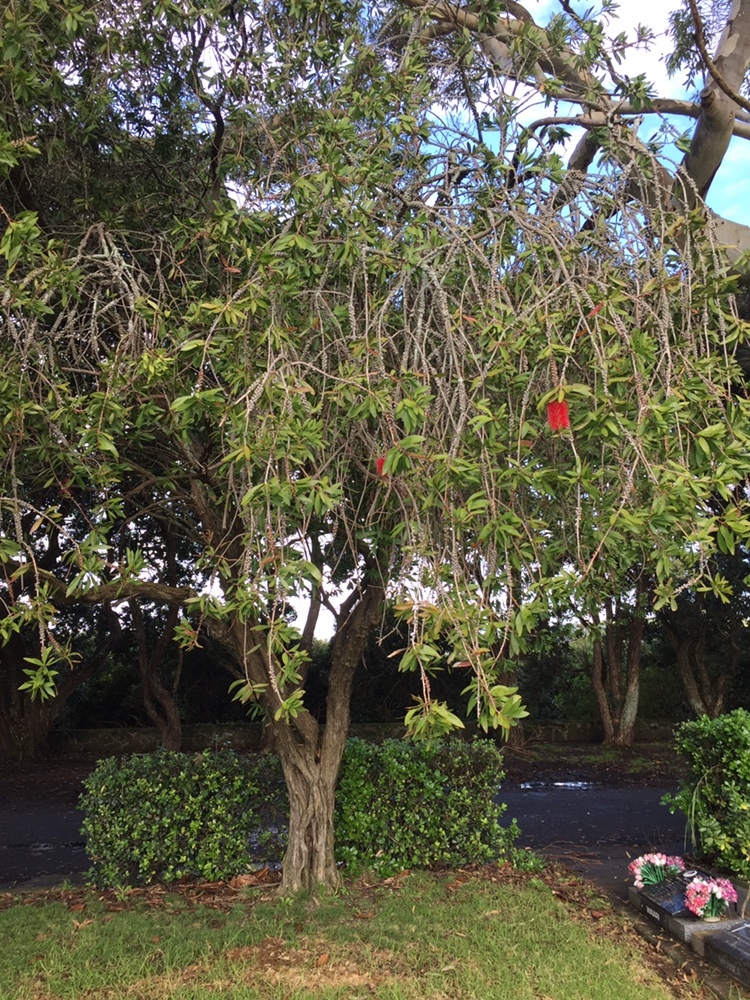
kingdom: Animalia
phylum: Arthropoda
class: Insecta
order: Hymenoptera
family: Bethylidae
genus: Eupsenella
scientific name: Eupsenella insulana
